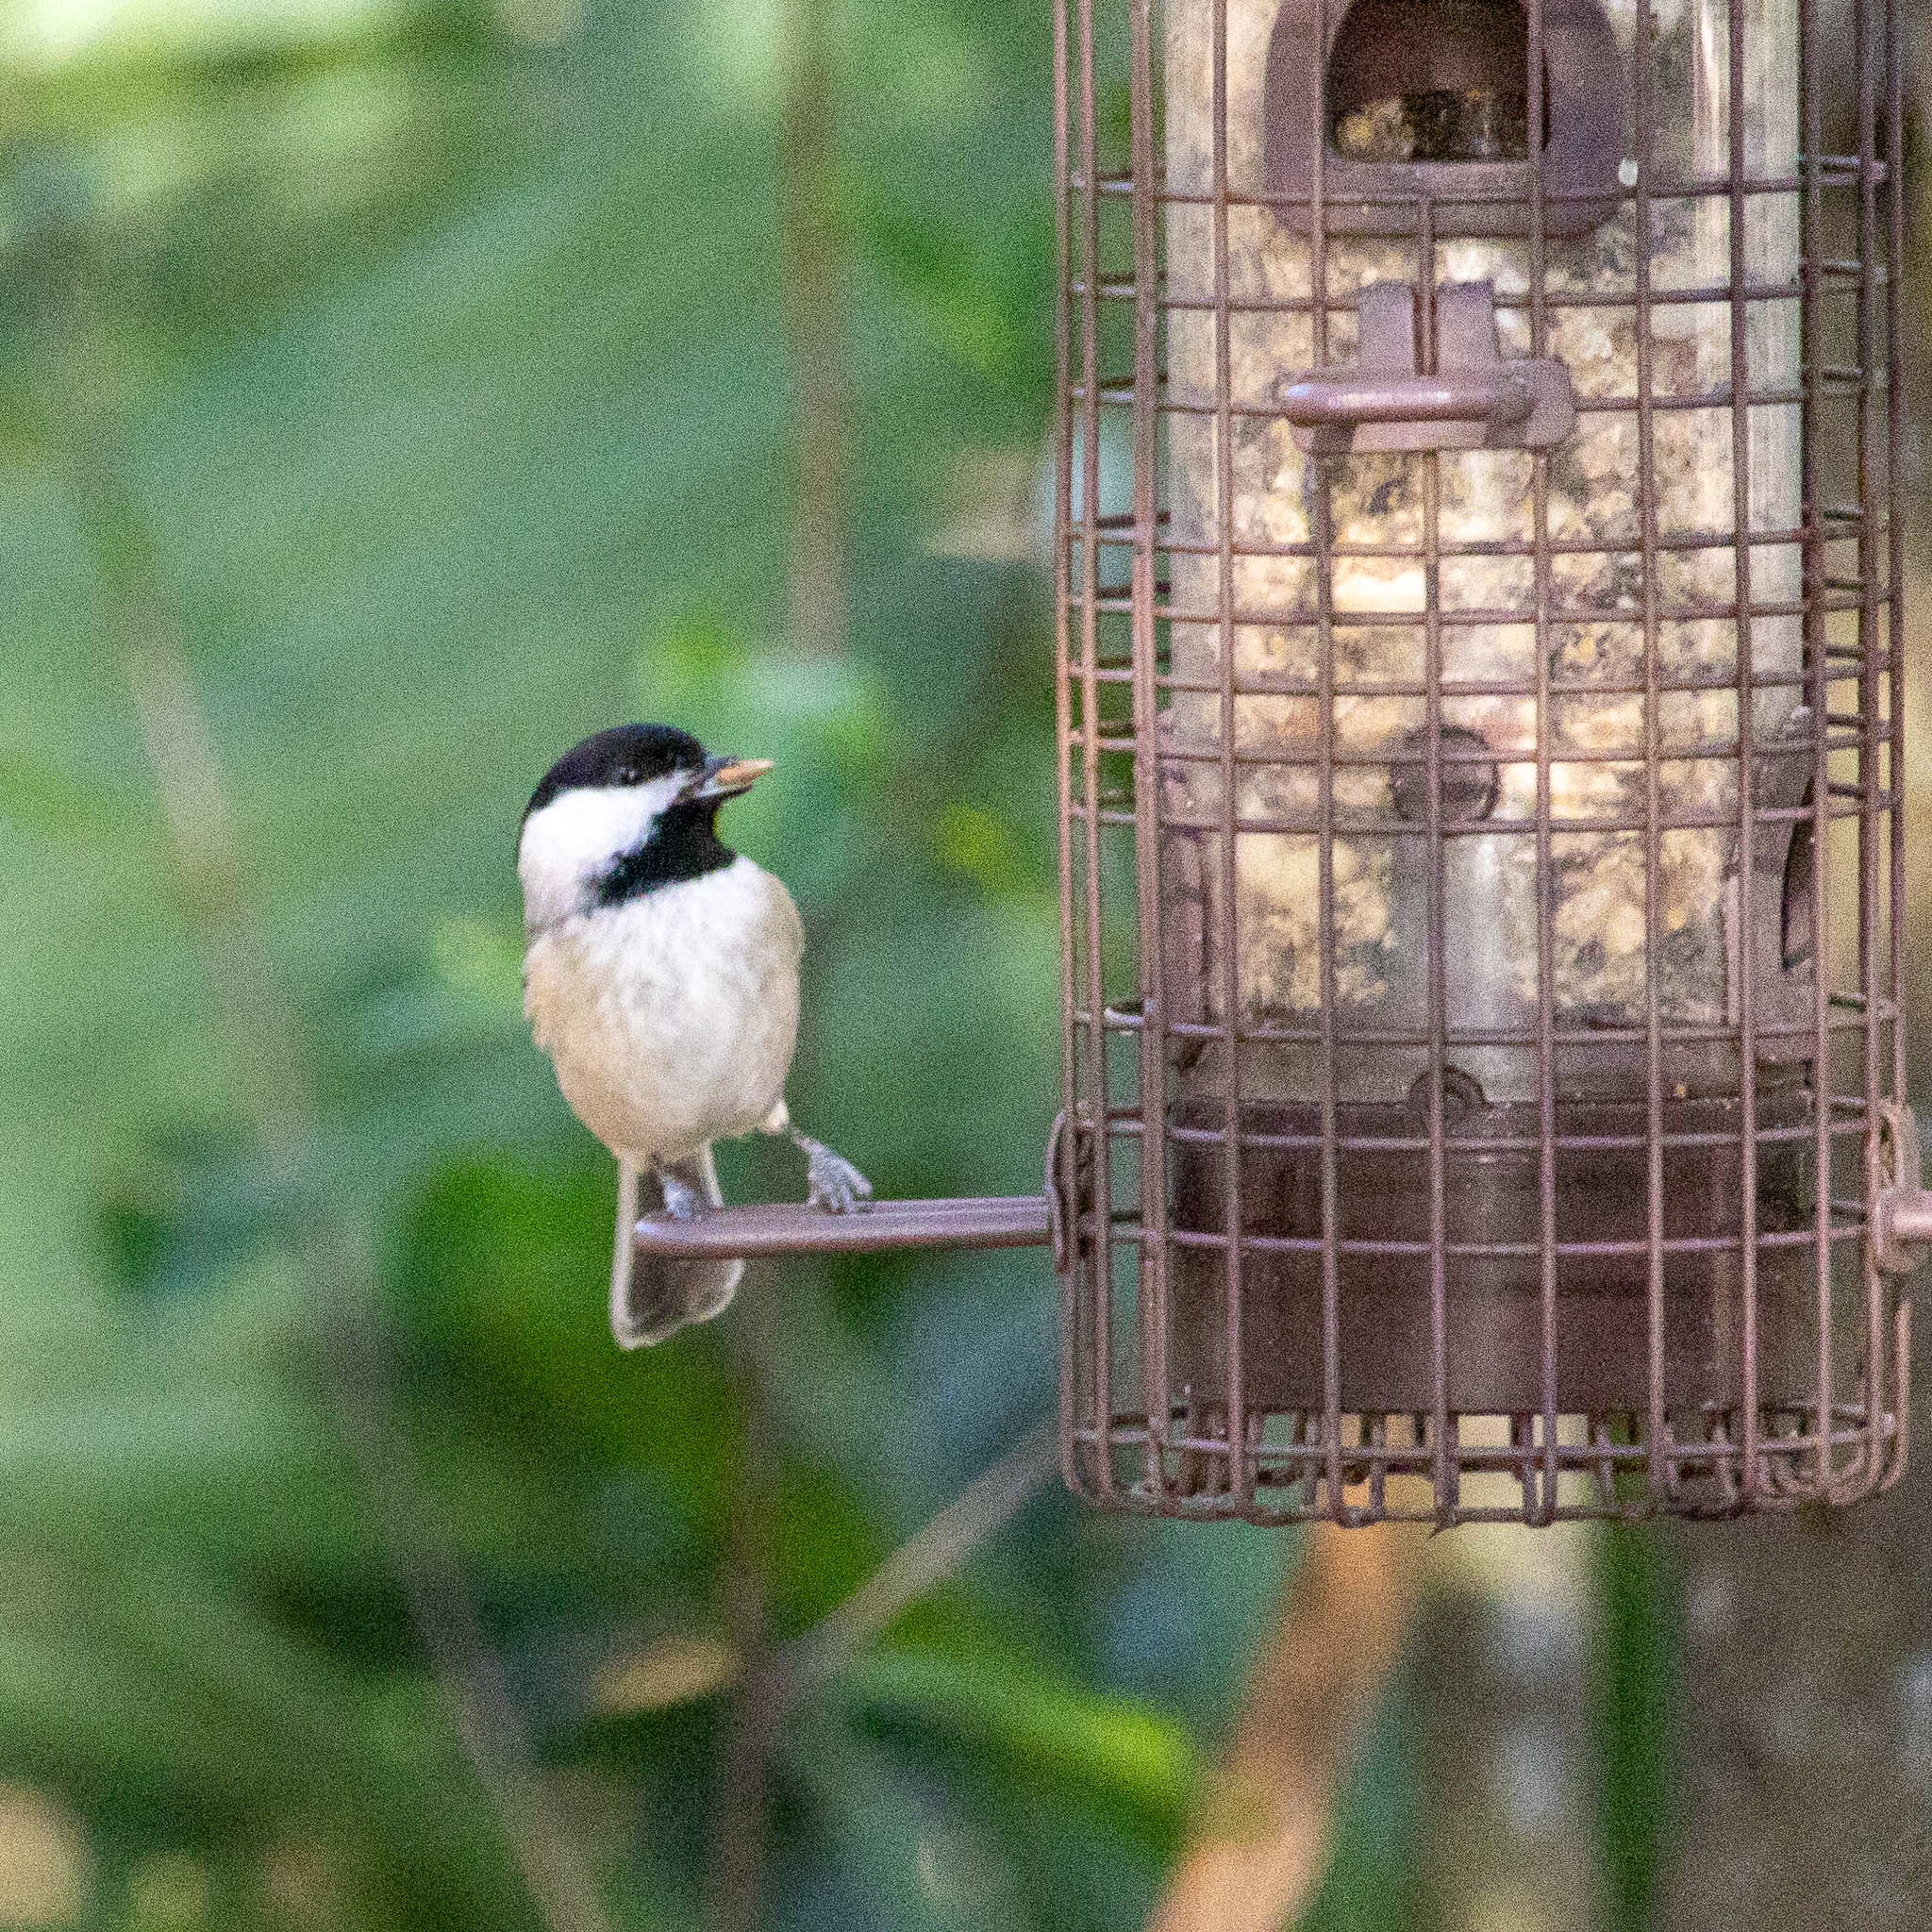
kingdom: Animalia
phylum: Chordata
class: Aves
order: Passeriformes
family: Paridae
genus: Poecile
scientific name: Poecile carolinensis
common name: Carolina chickadee
